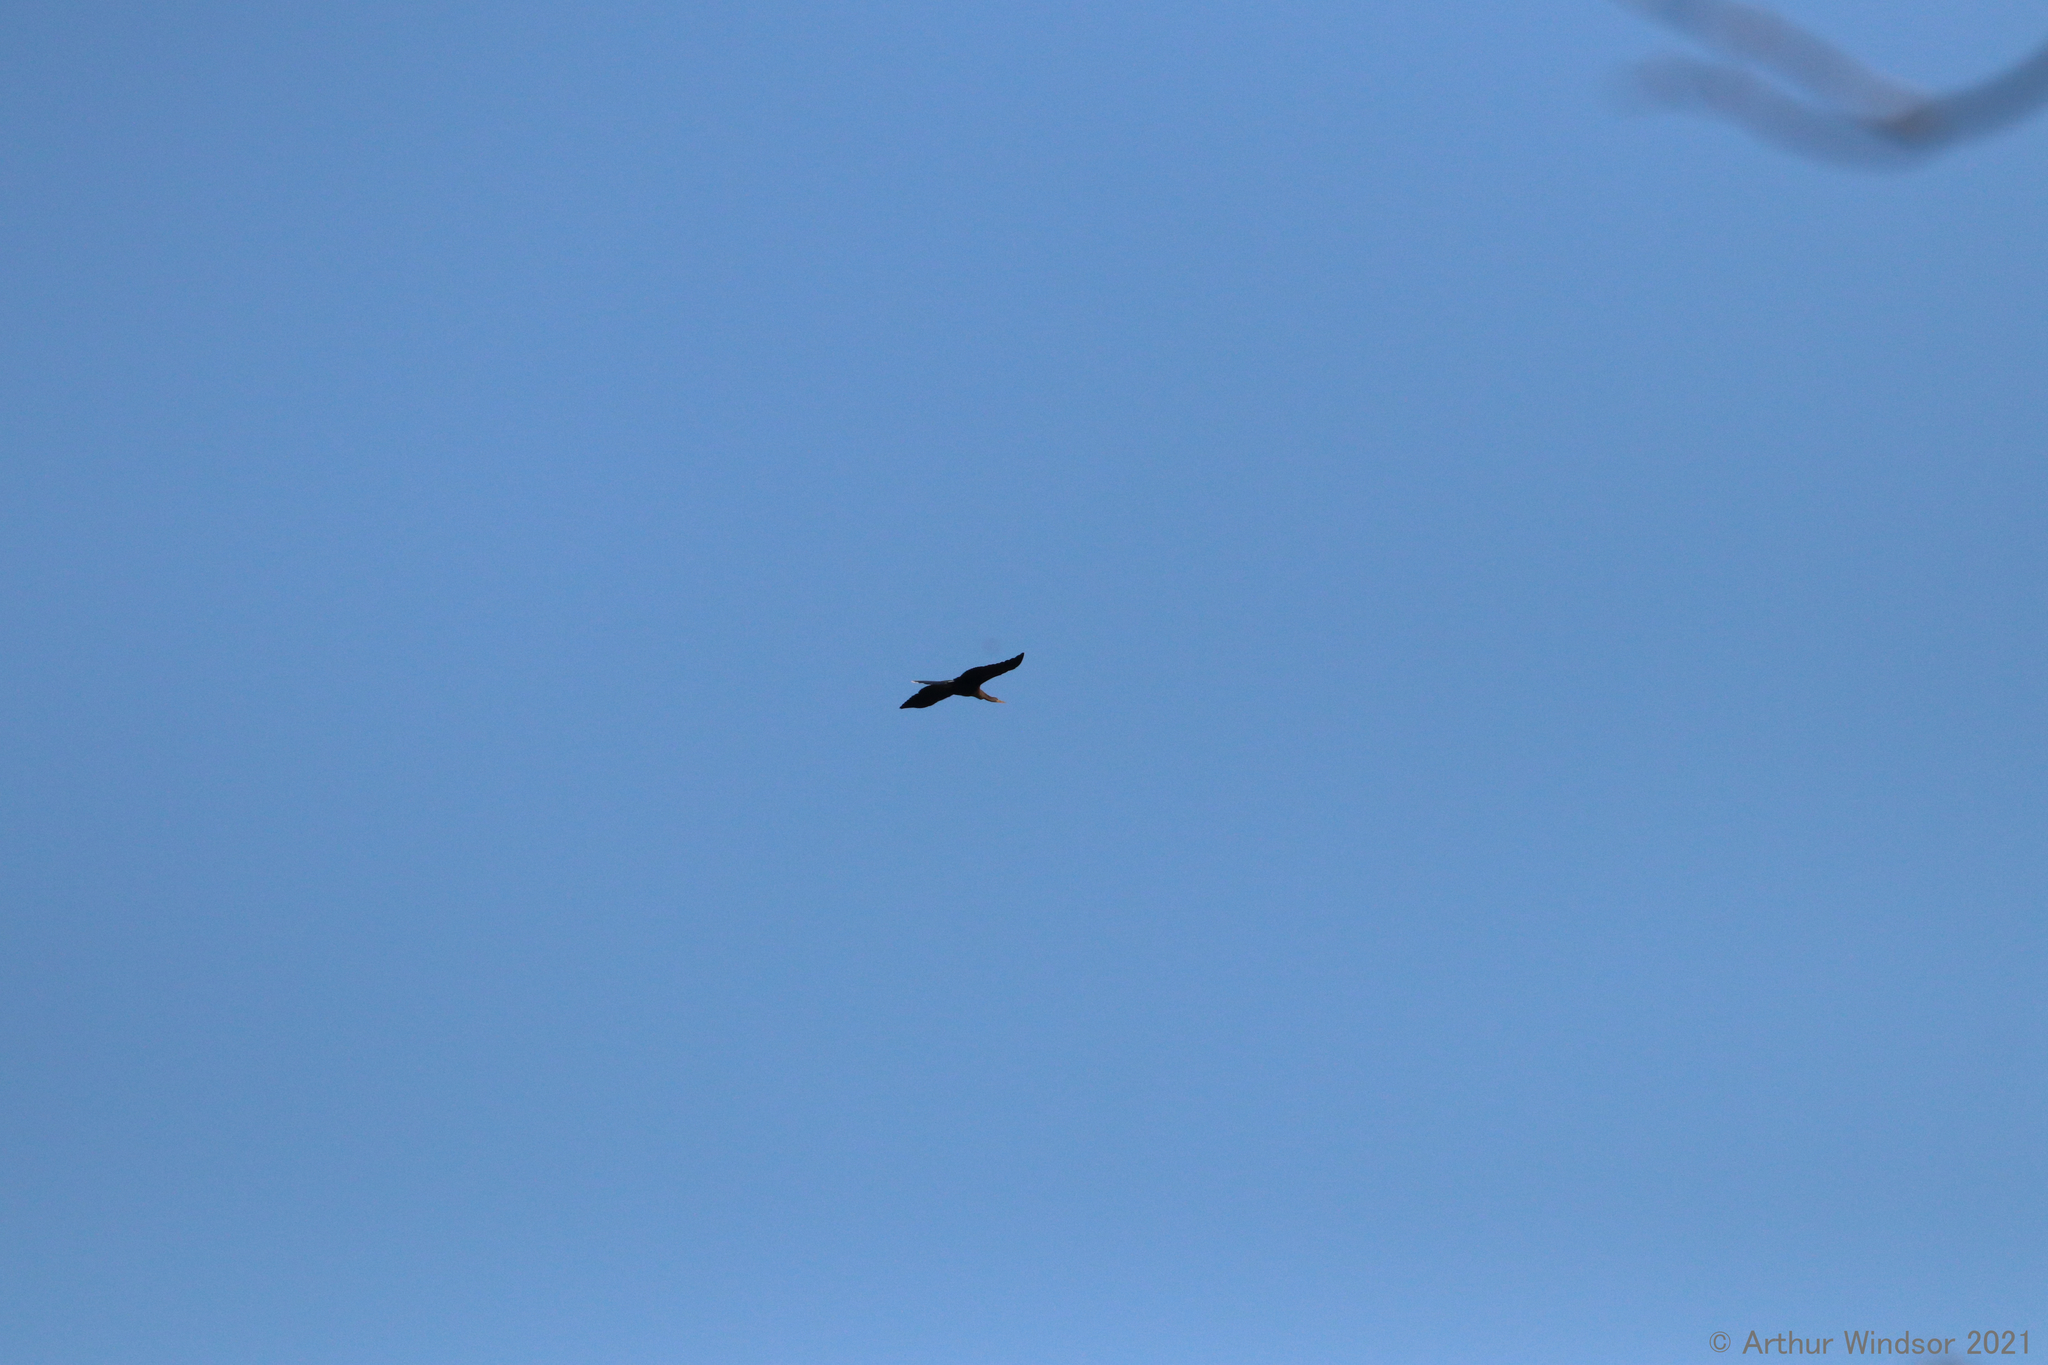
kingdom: Animalia
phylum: Chordata
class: Aves
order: Suliformes
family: Anhingidae
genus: Anhinga
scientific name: Anhinga anhinga
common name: Anhinga
